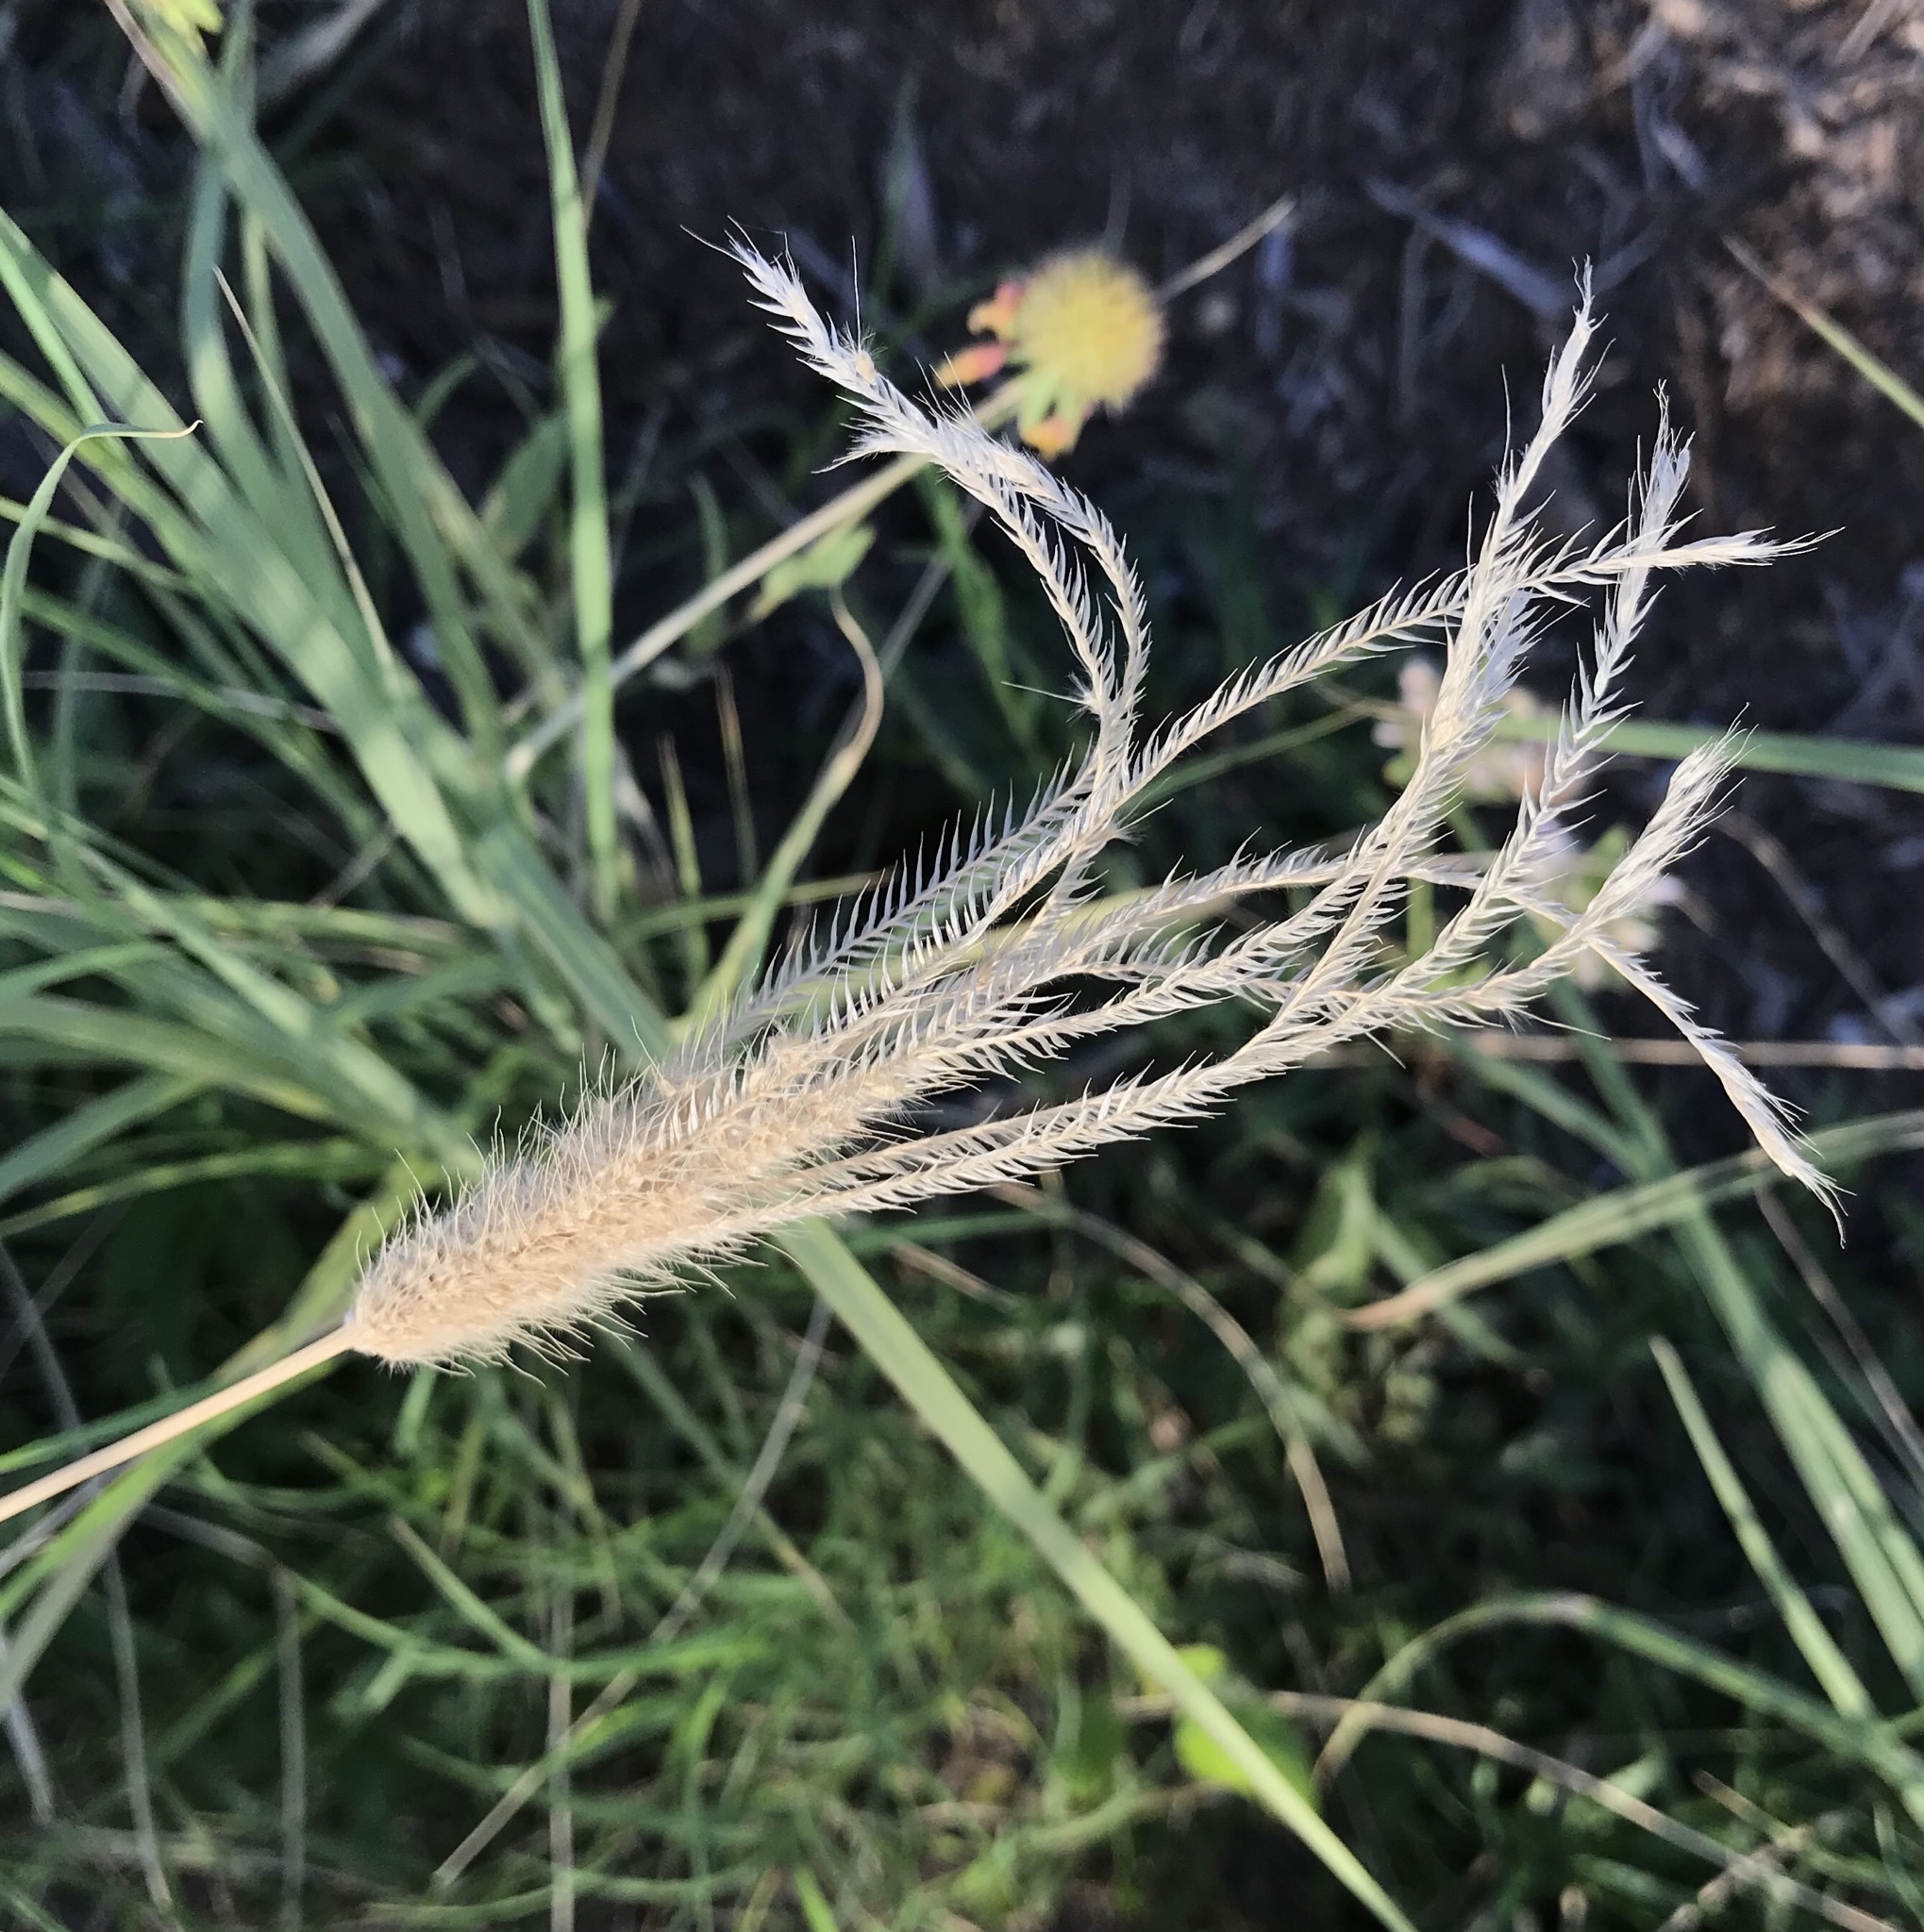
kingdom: Plantae
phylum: Tracheophyta
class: Liliopsida
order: Poales
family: Poaceae
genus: Chloris
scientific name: Chloris virgata
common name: Feathery rhodes-grass
